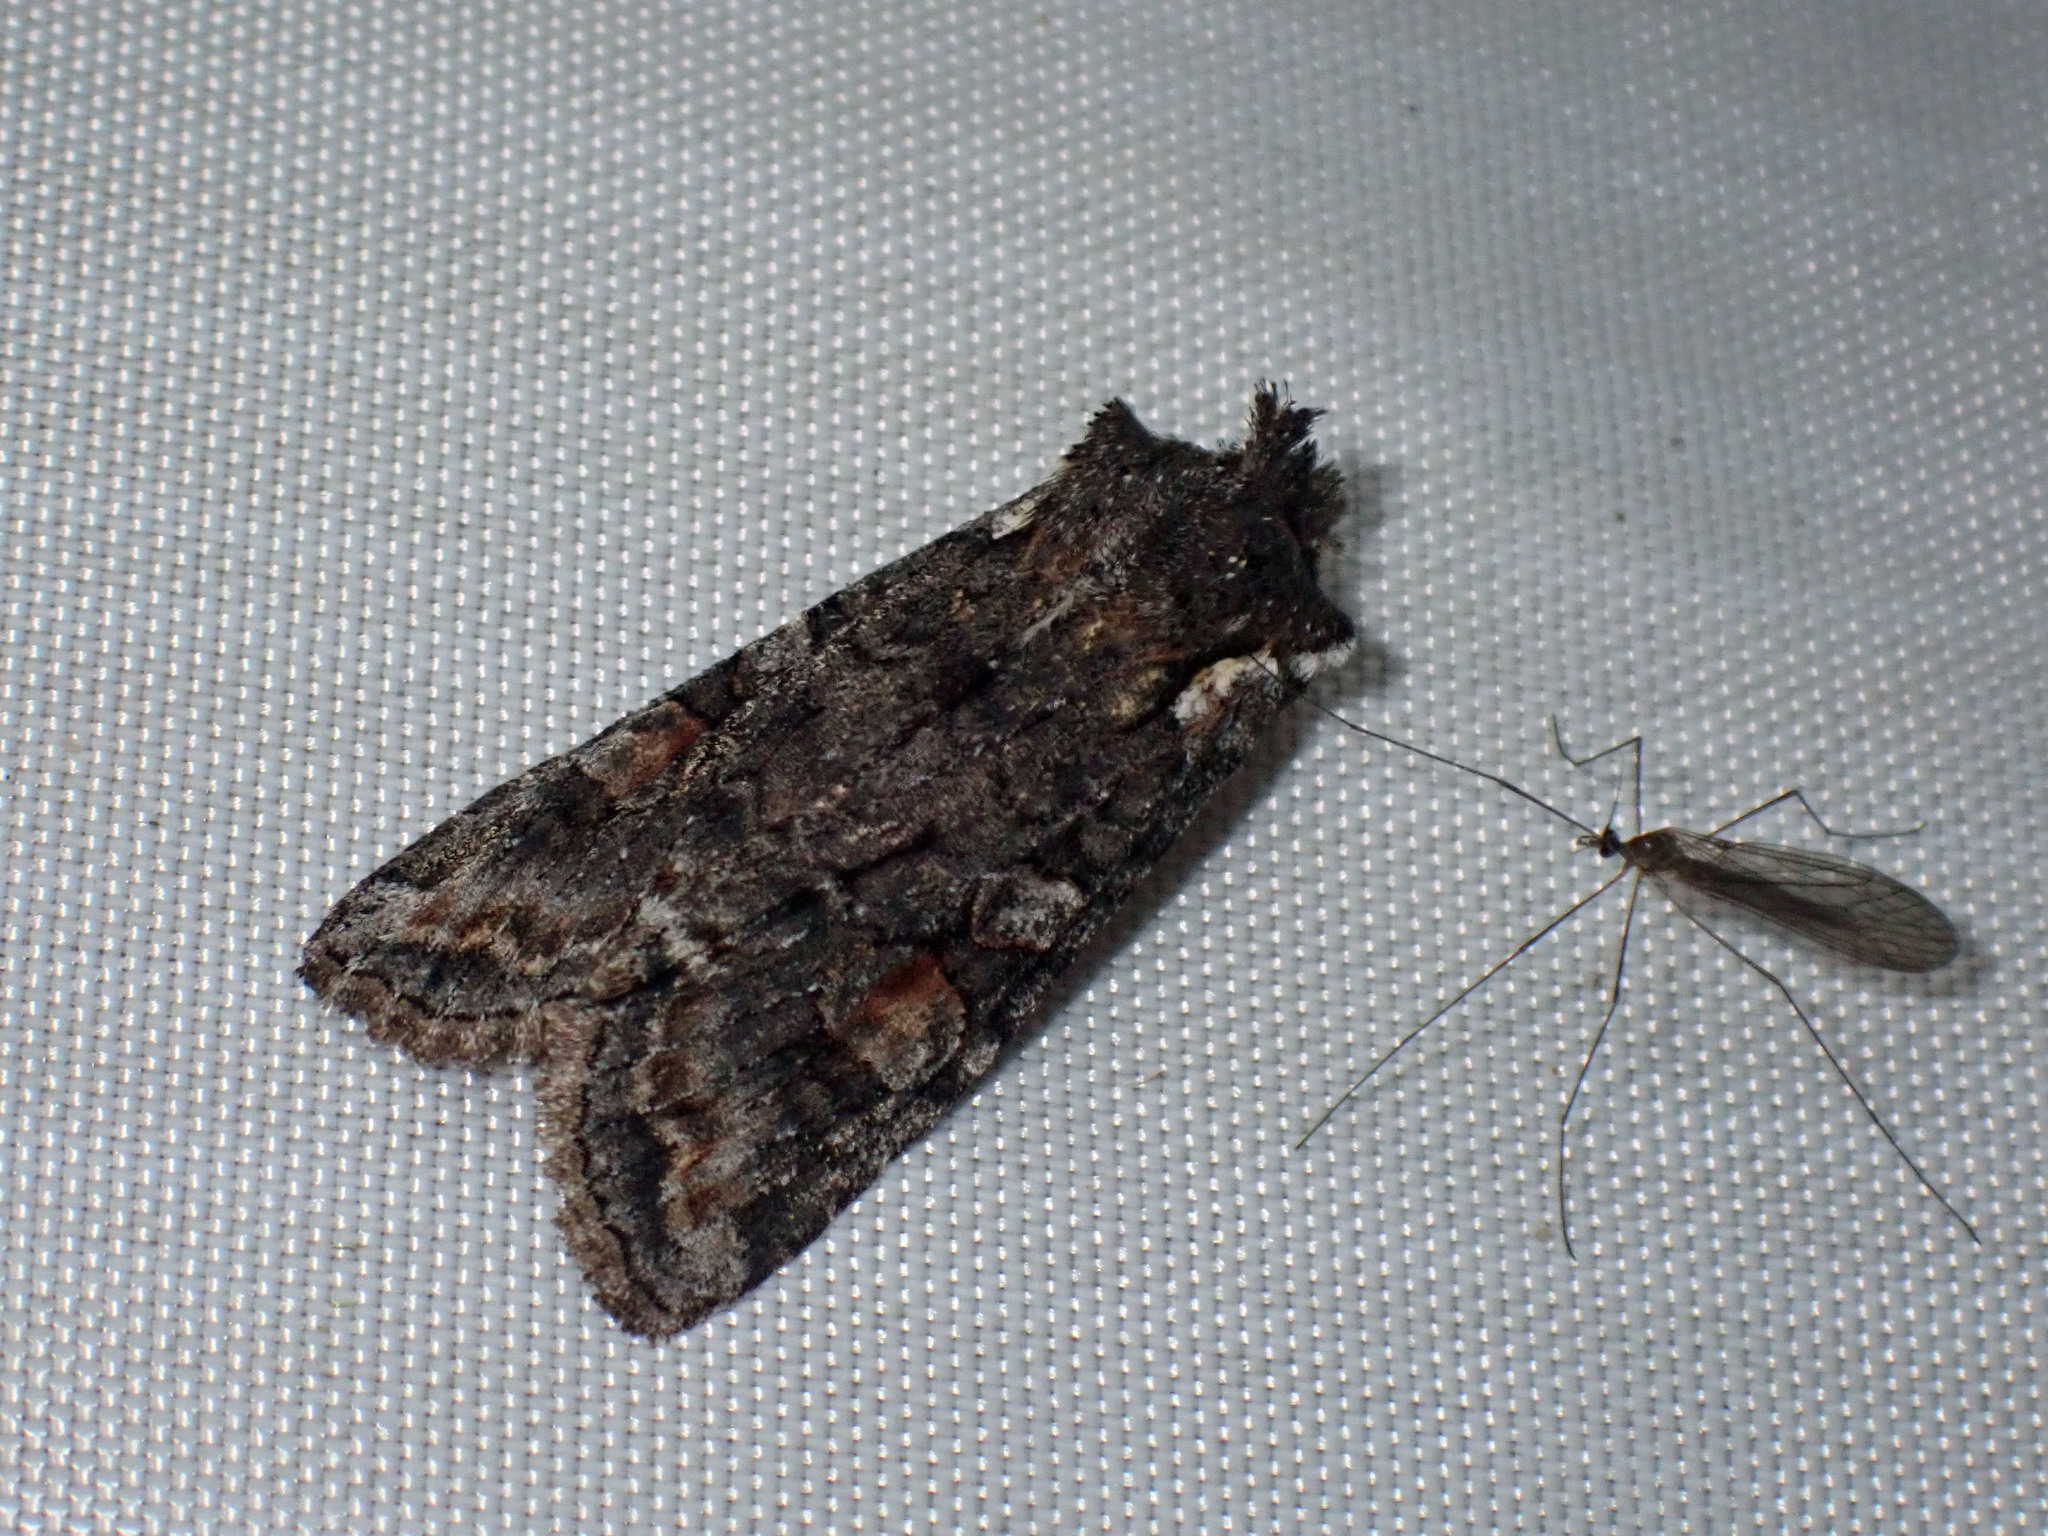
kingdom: Animalia
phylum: Arthropoda
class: Insecta
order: Lepidoptera
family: Noctuidae
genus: Lithophane
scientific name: Lithophane pexata
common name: Plush-naped pinion moth
